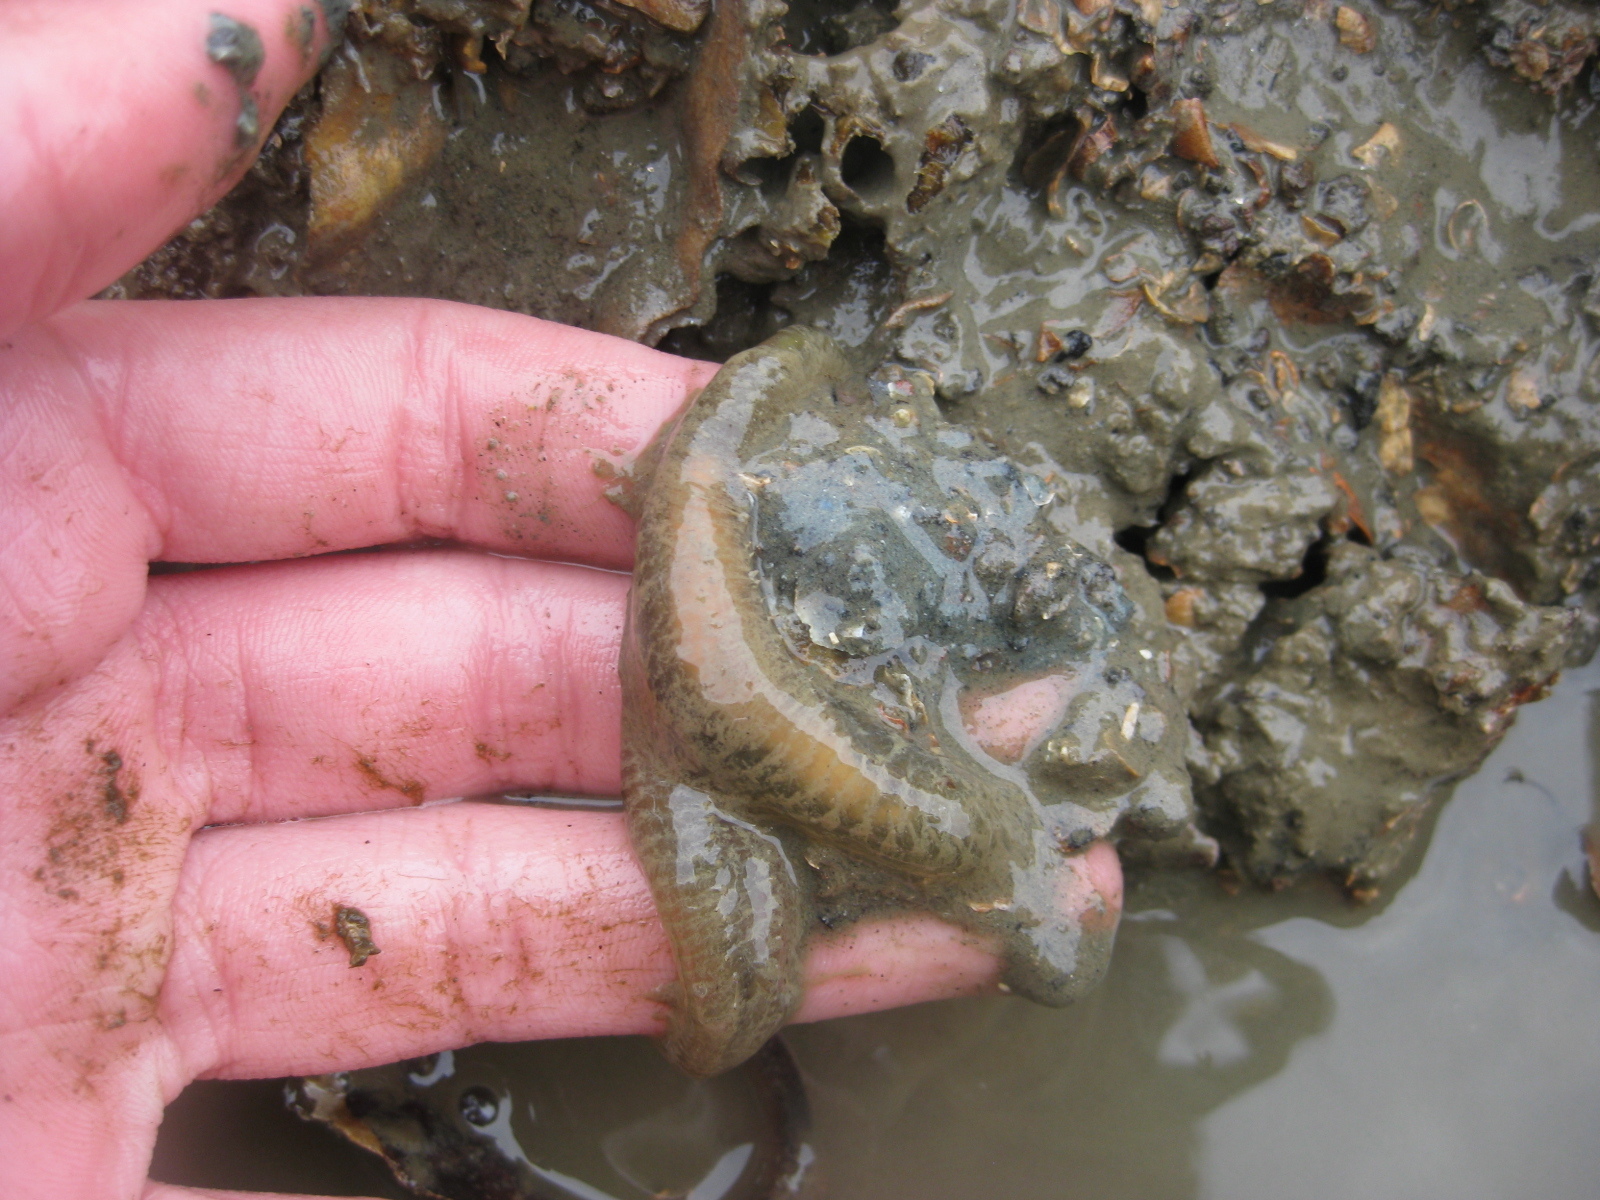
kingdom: Animalia
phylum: Annelida
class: Polychaeta
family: Flabelligeridae
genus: Flabelligera
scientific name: Flabelligera bicolor
